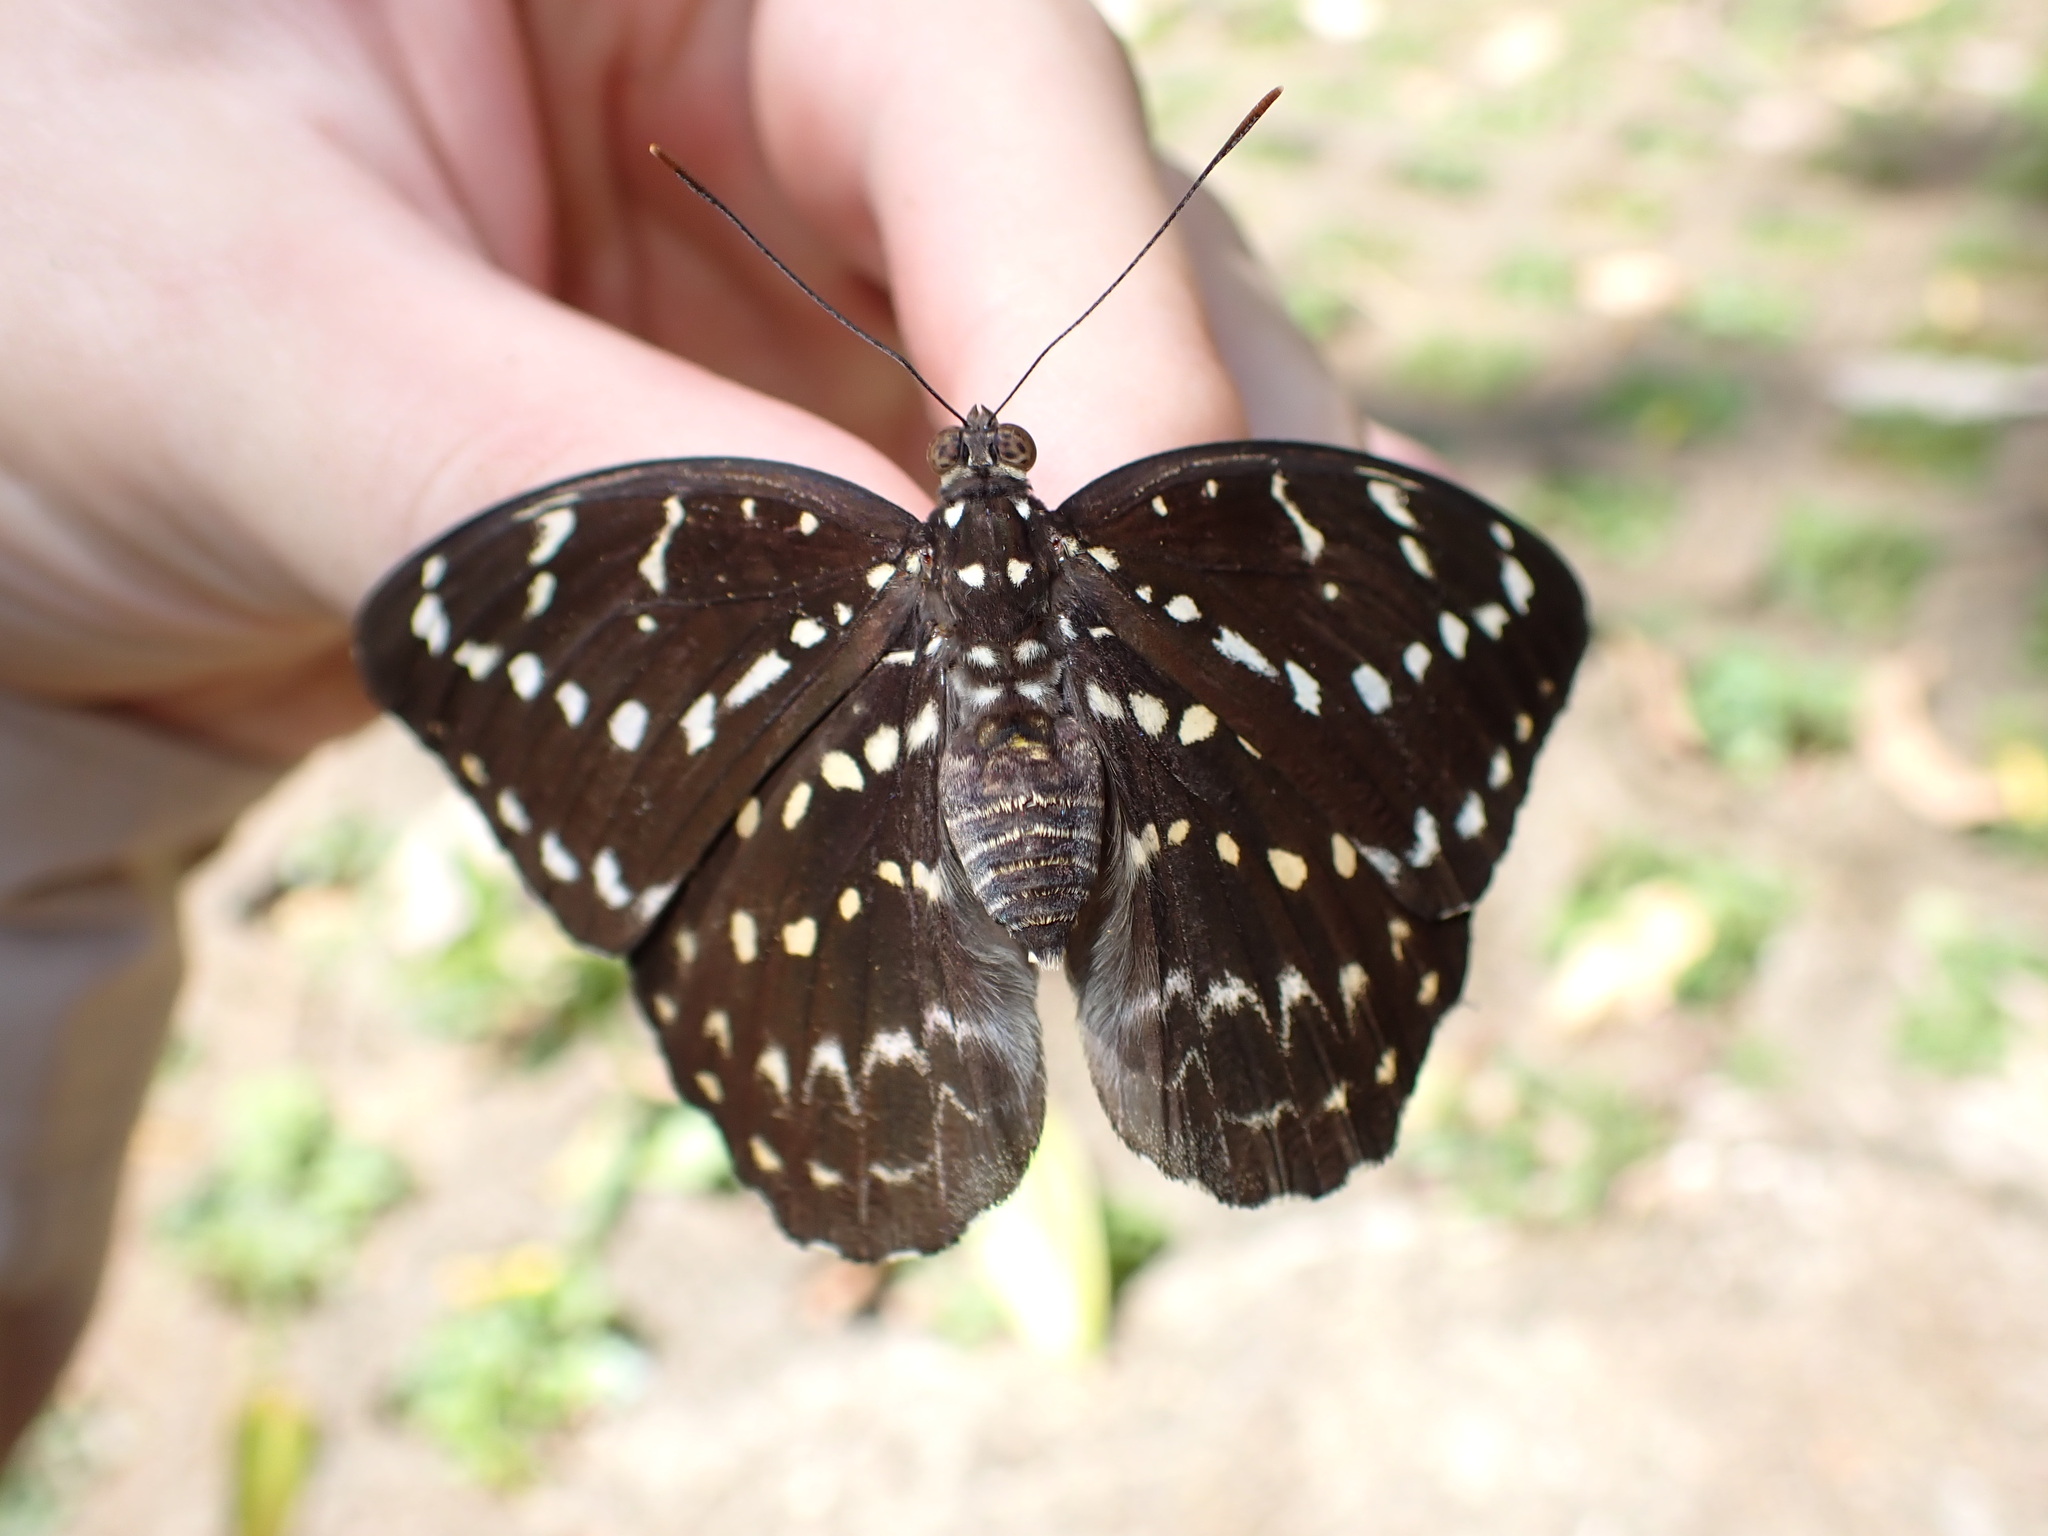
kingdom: Animalia
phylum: Arthropoda
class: Insecta
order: Lepidoptera
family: Nymphalidae
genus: Lexias
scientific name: Lexias canescens
